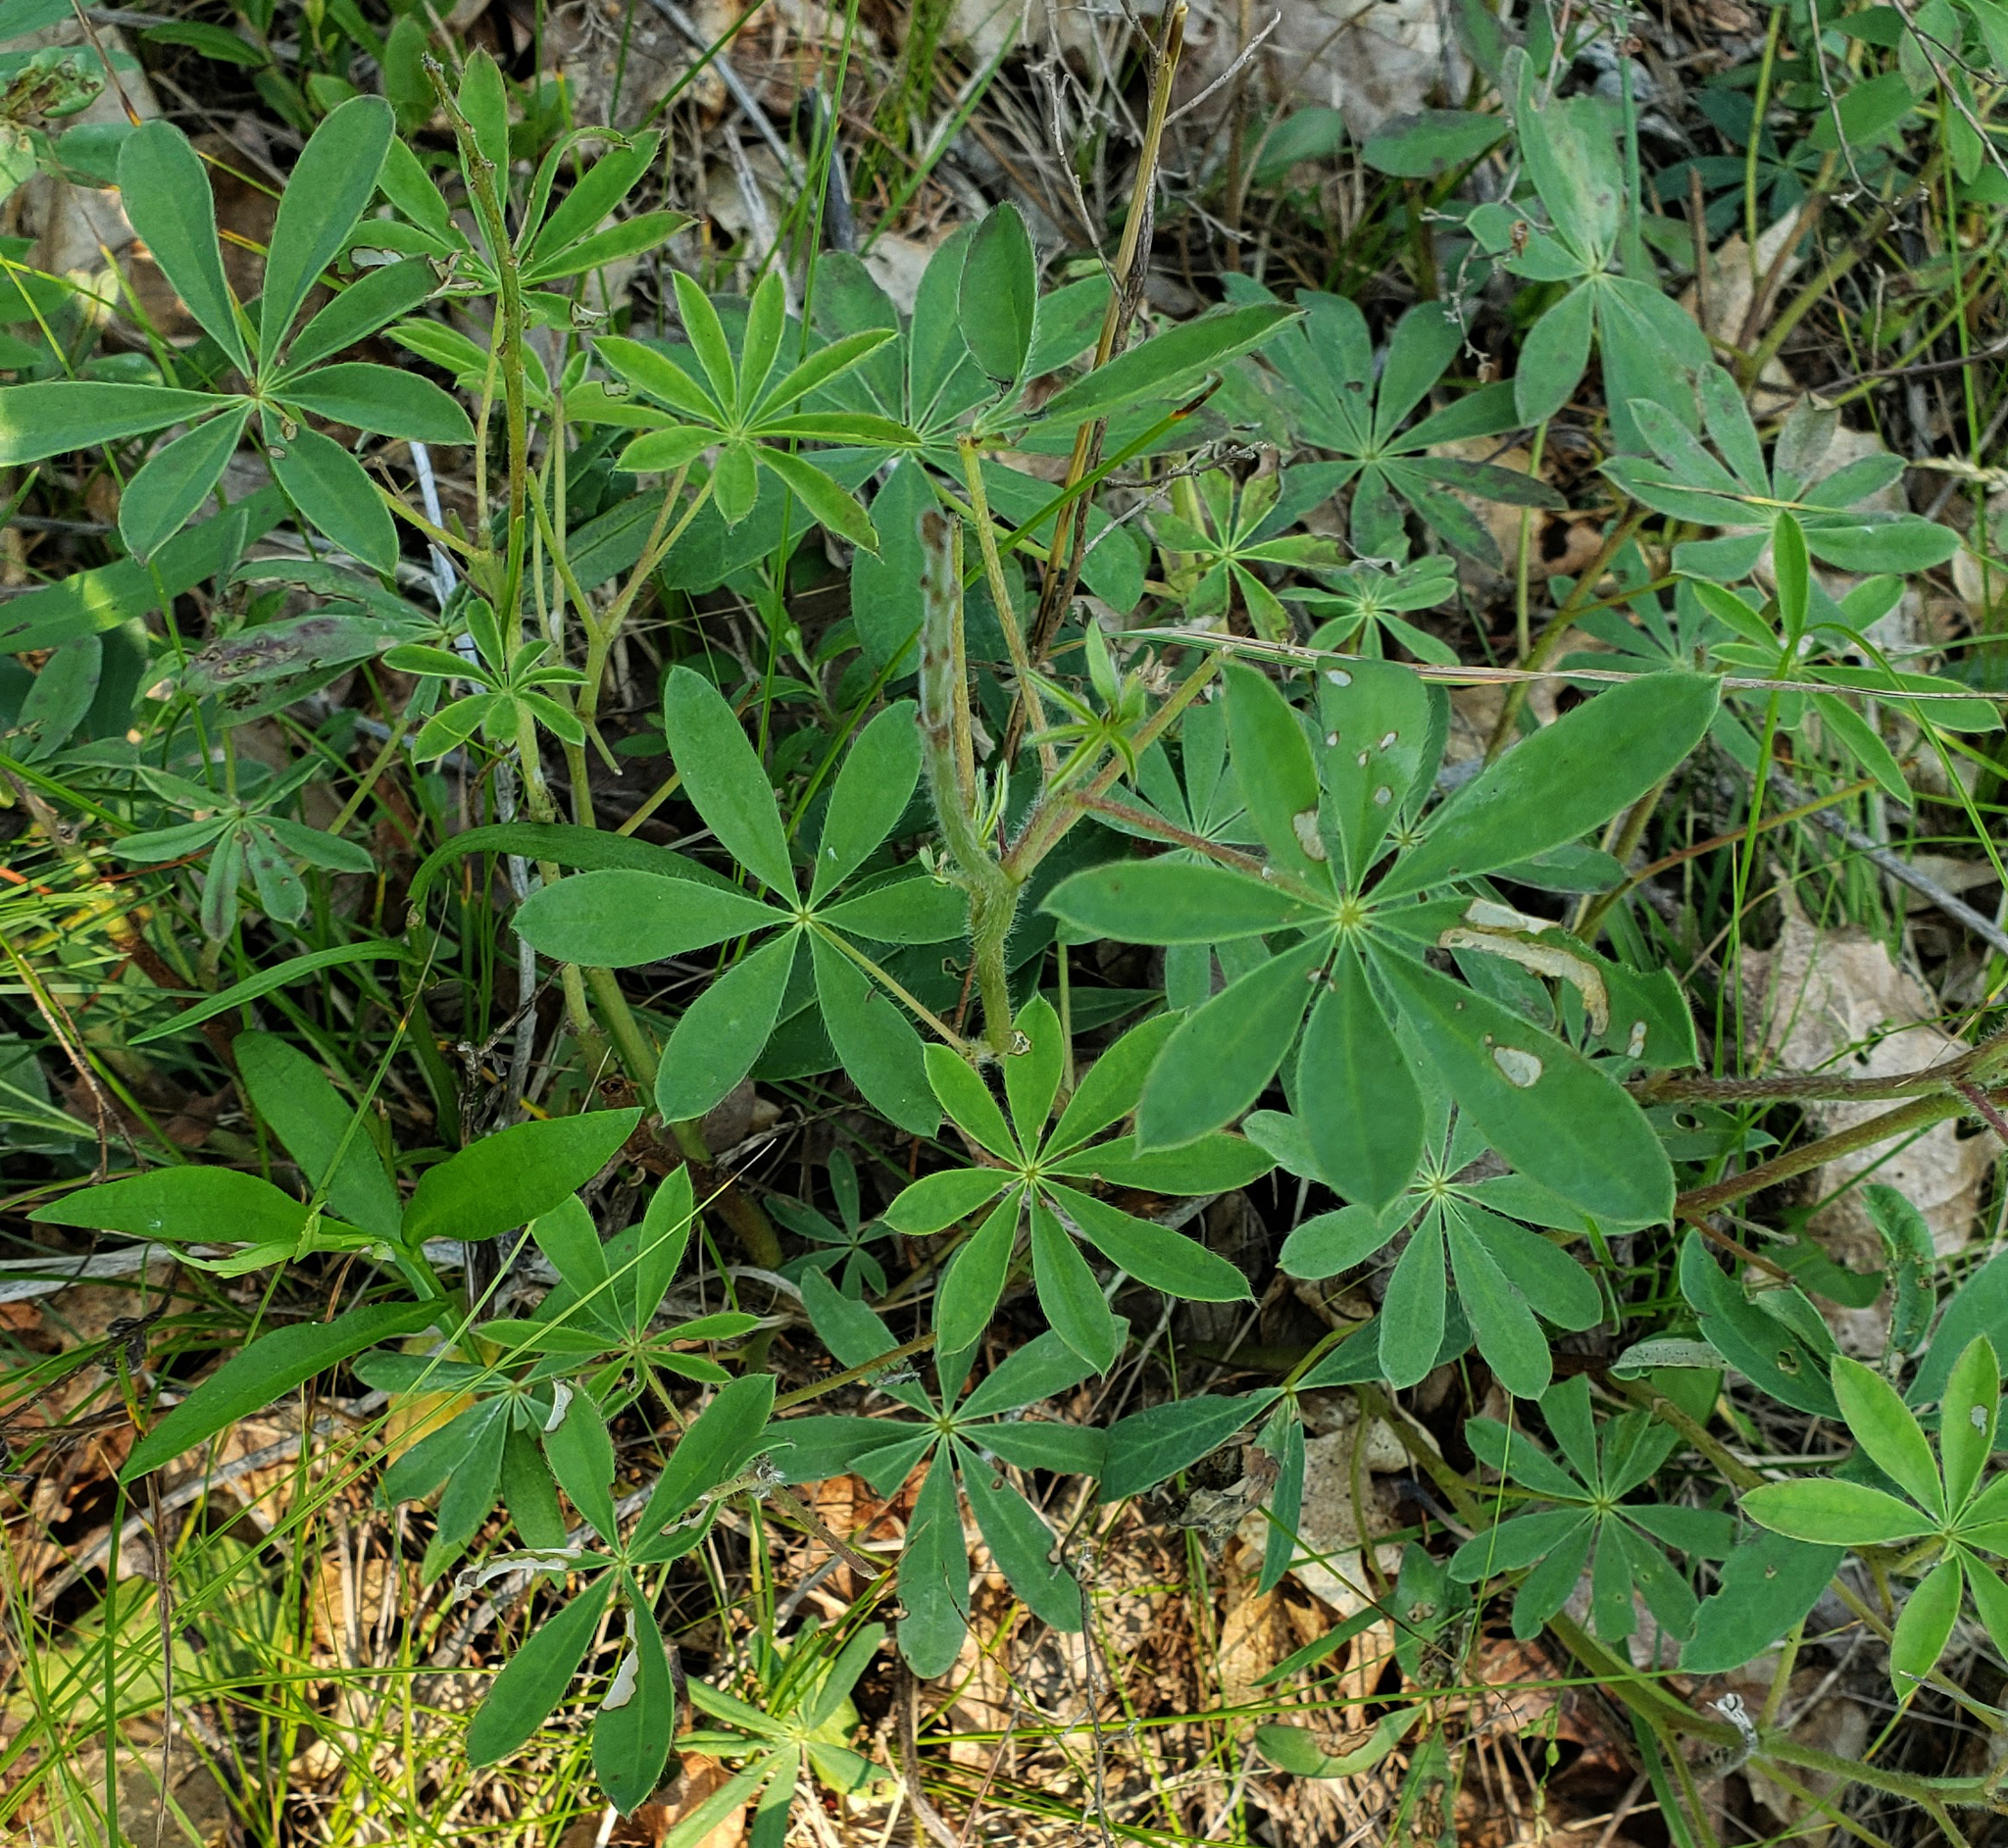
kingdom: Plantae
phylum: Tracheophyta
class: Magnoliopsida
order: Fabales
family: Fabaceae
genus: Lupinus
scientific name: Lupinus perennis
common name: Sundial lupine
